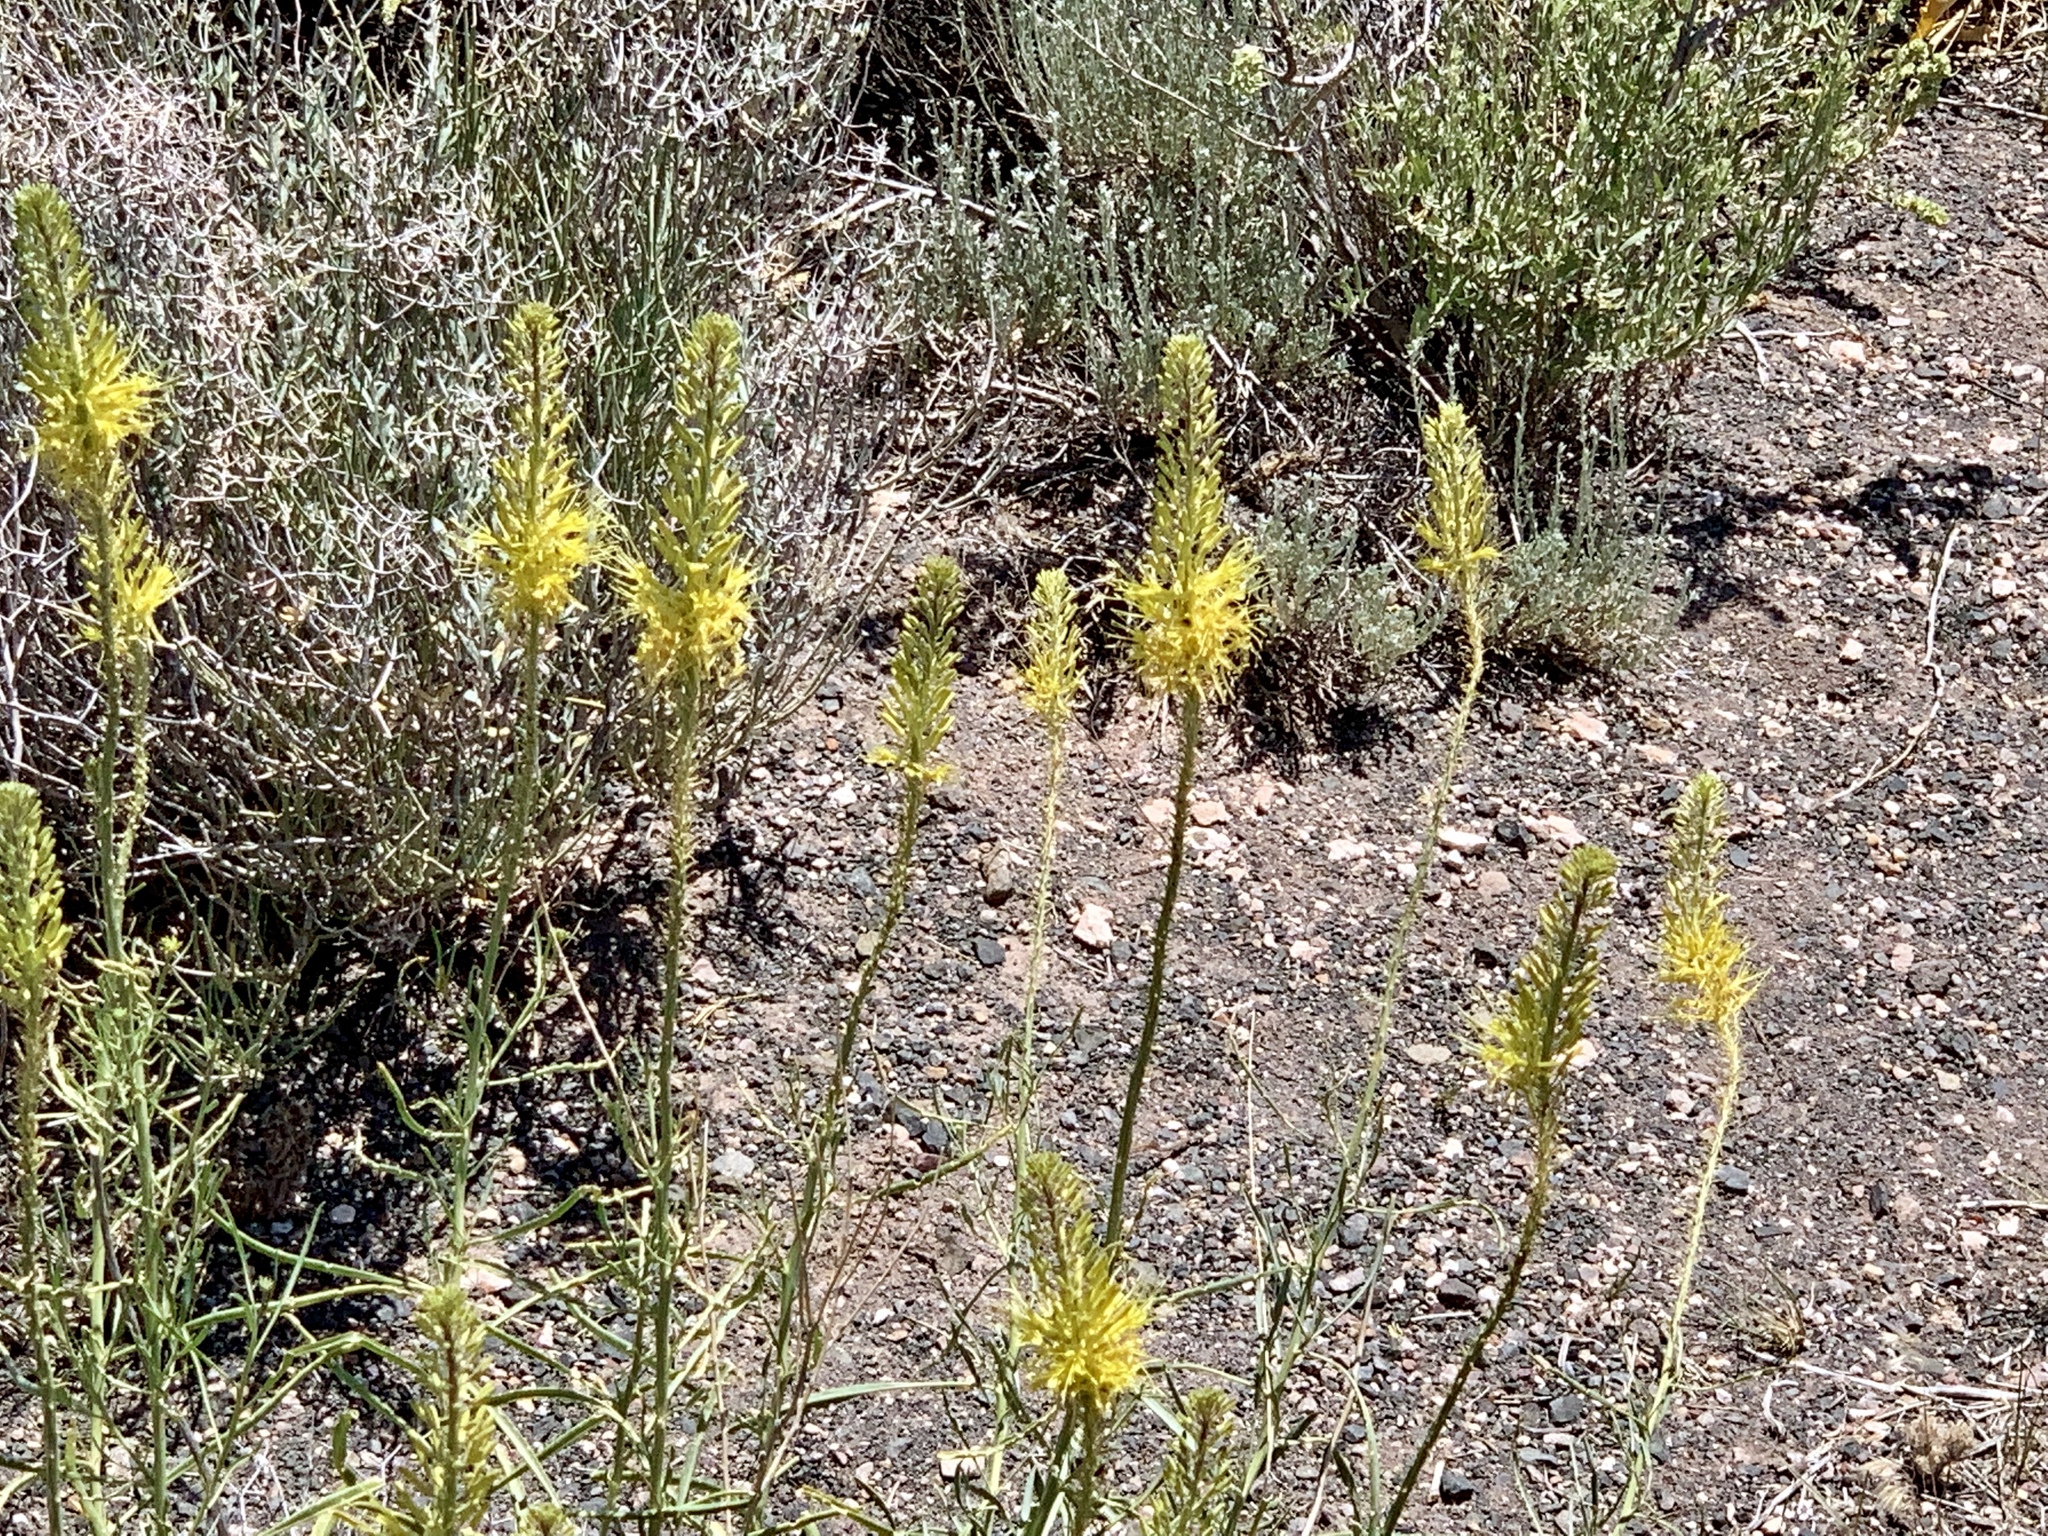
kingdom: Plantae
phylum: Tracheophyta
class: Magnoliopsida
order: Brassicales
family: Brassicaceae
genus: Stanleya
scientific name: Stanleya pinnata
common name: Prince's-plume
